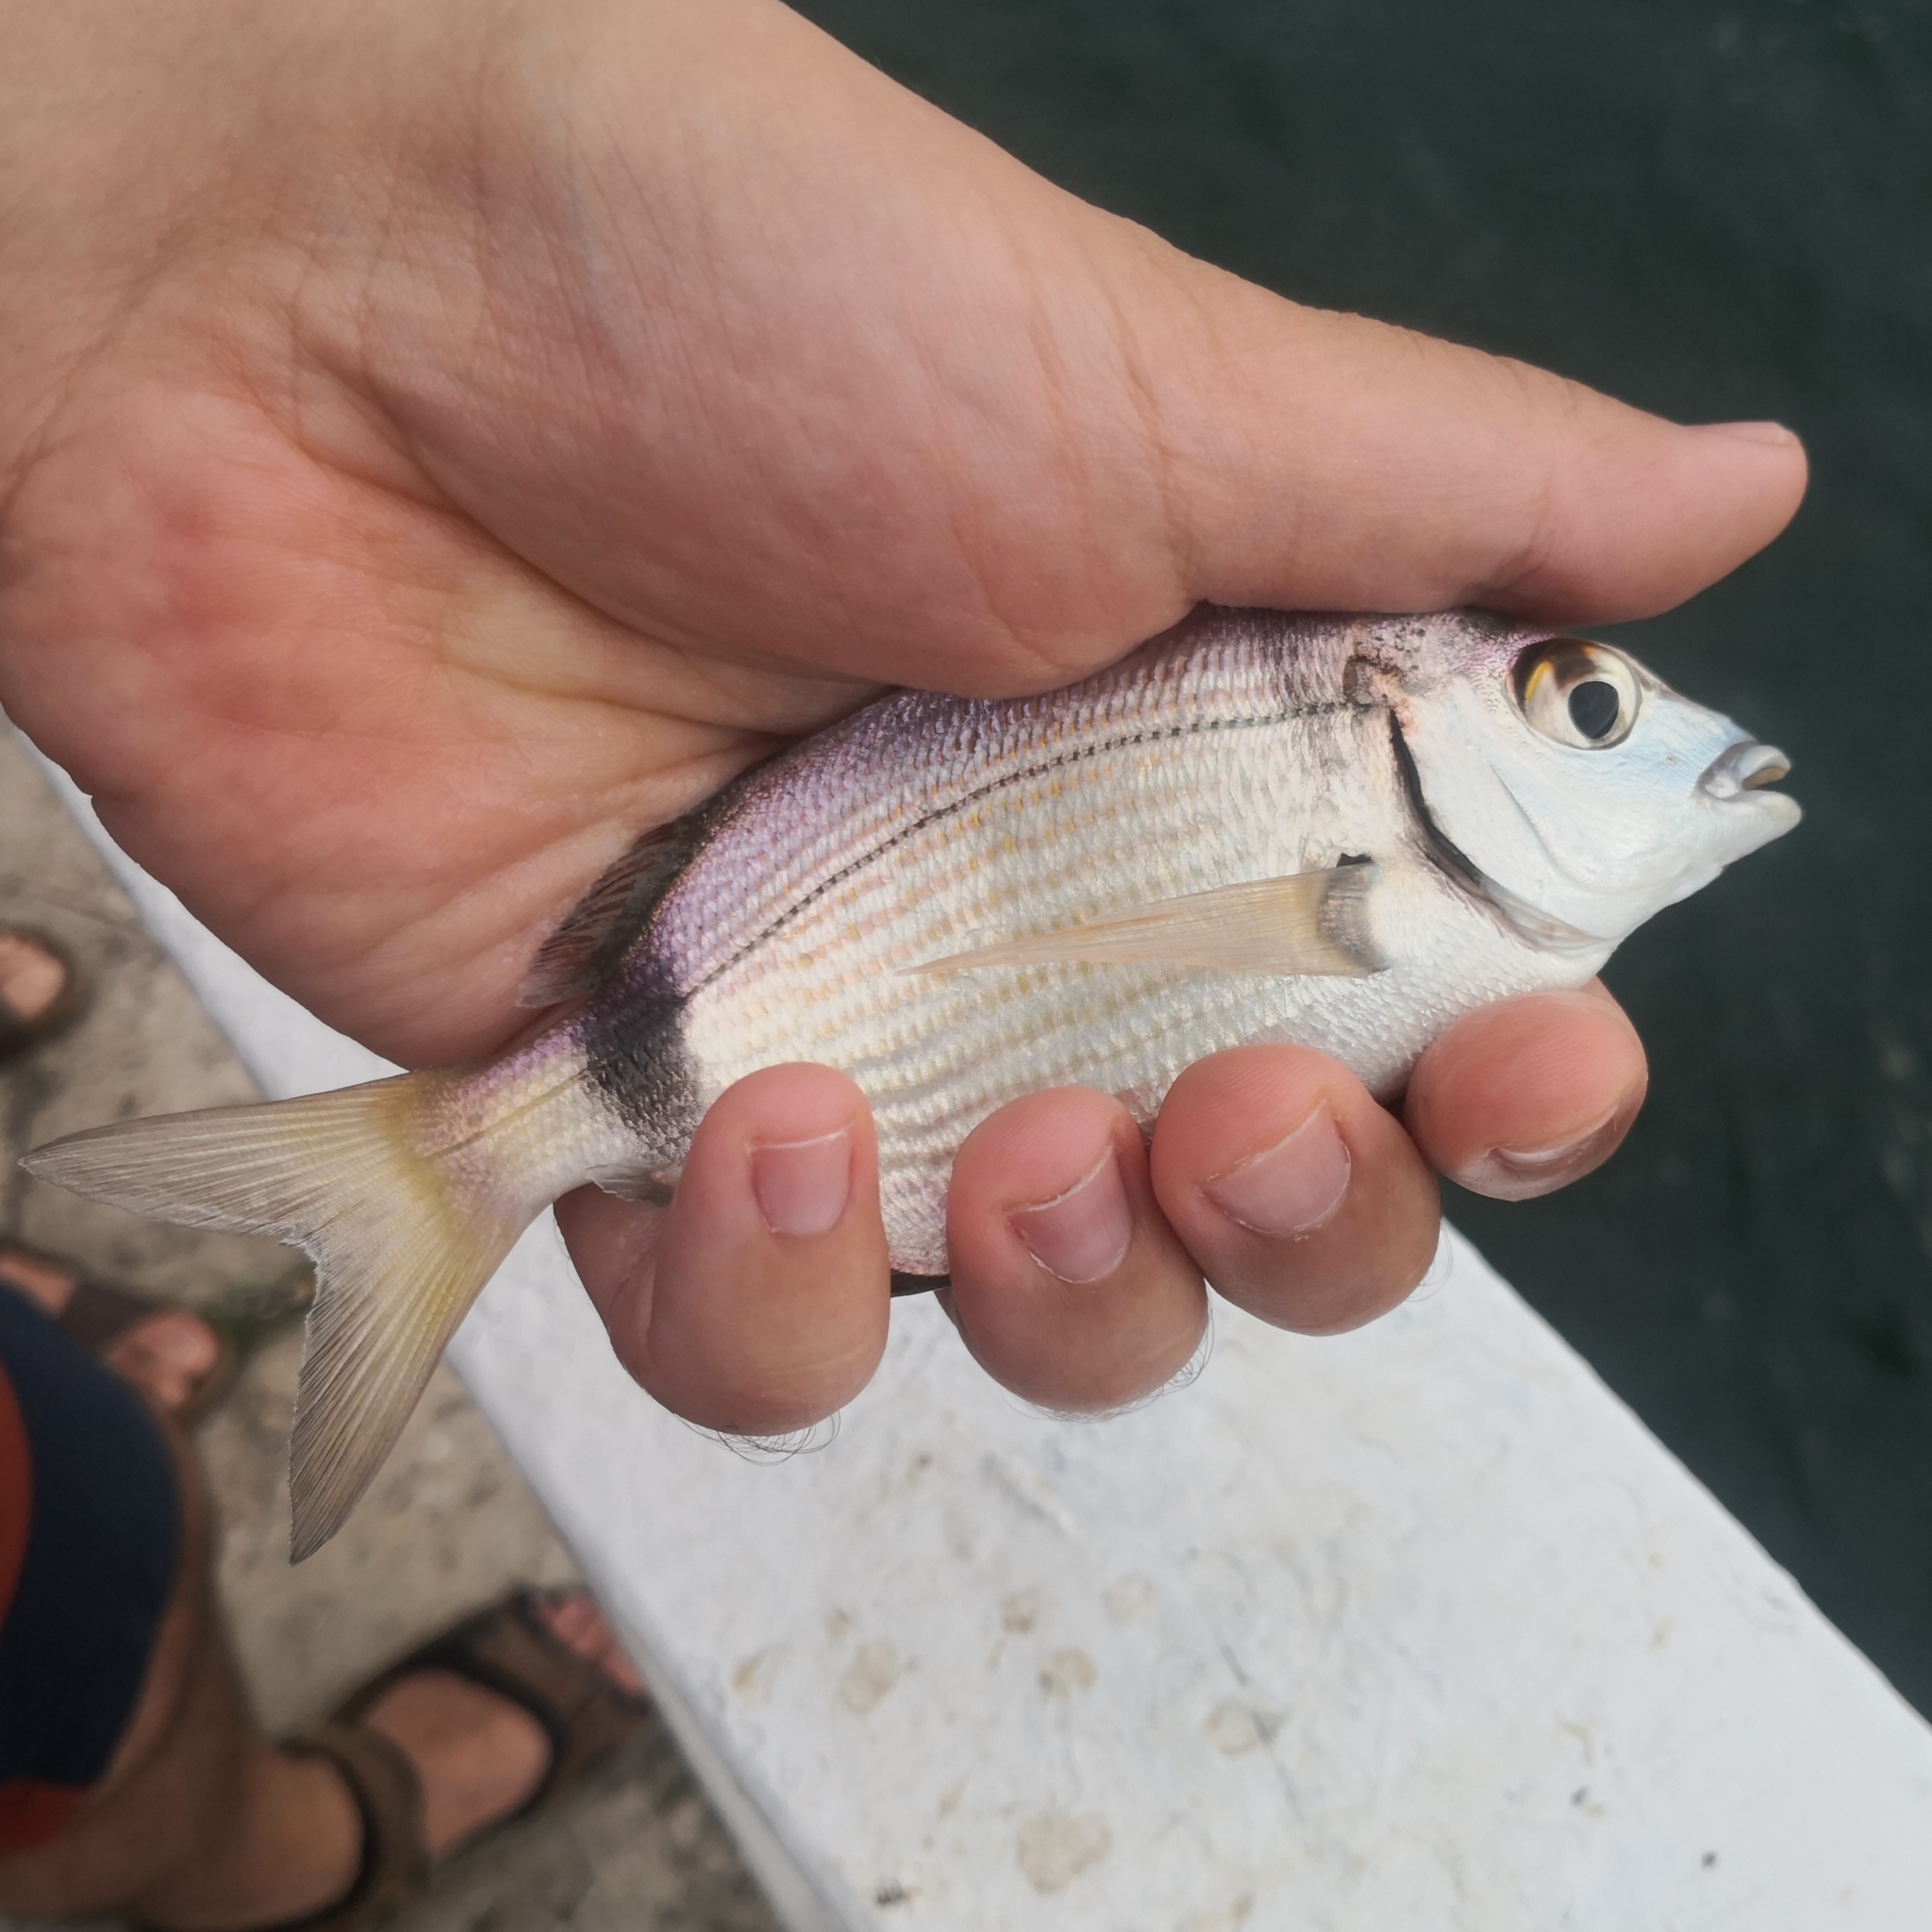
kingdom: Animalia
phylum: Chordata
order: Perciformes
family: Sparidae
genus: Diplodus
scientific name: Diplodus vulgaris
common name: Common two-banded seabream
